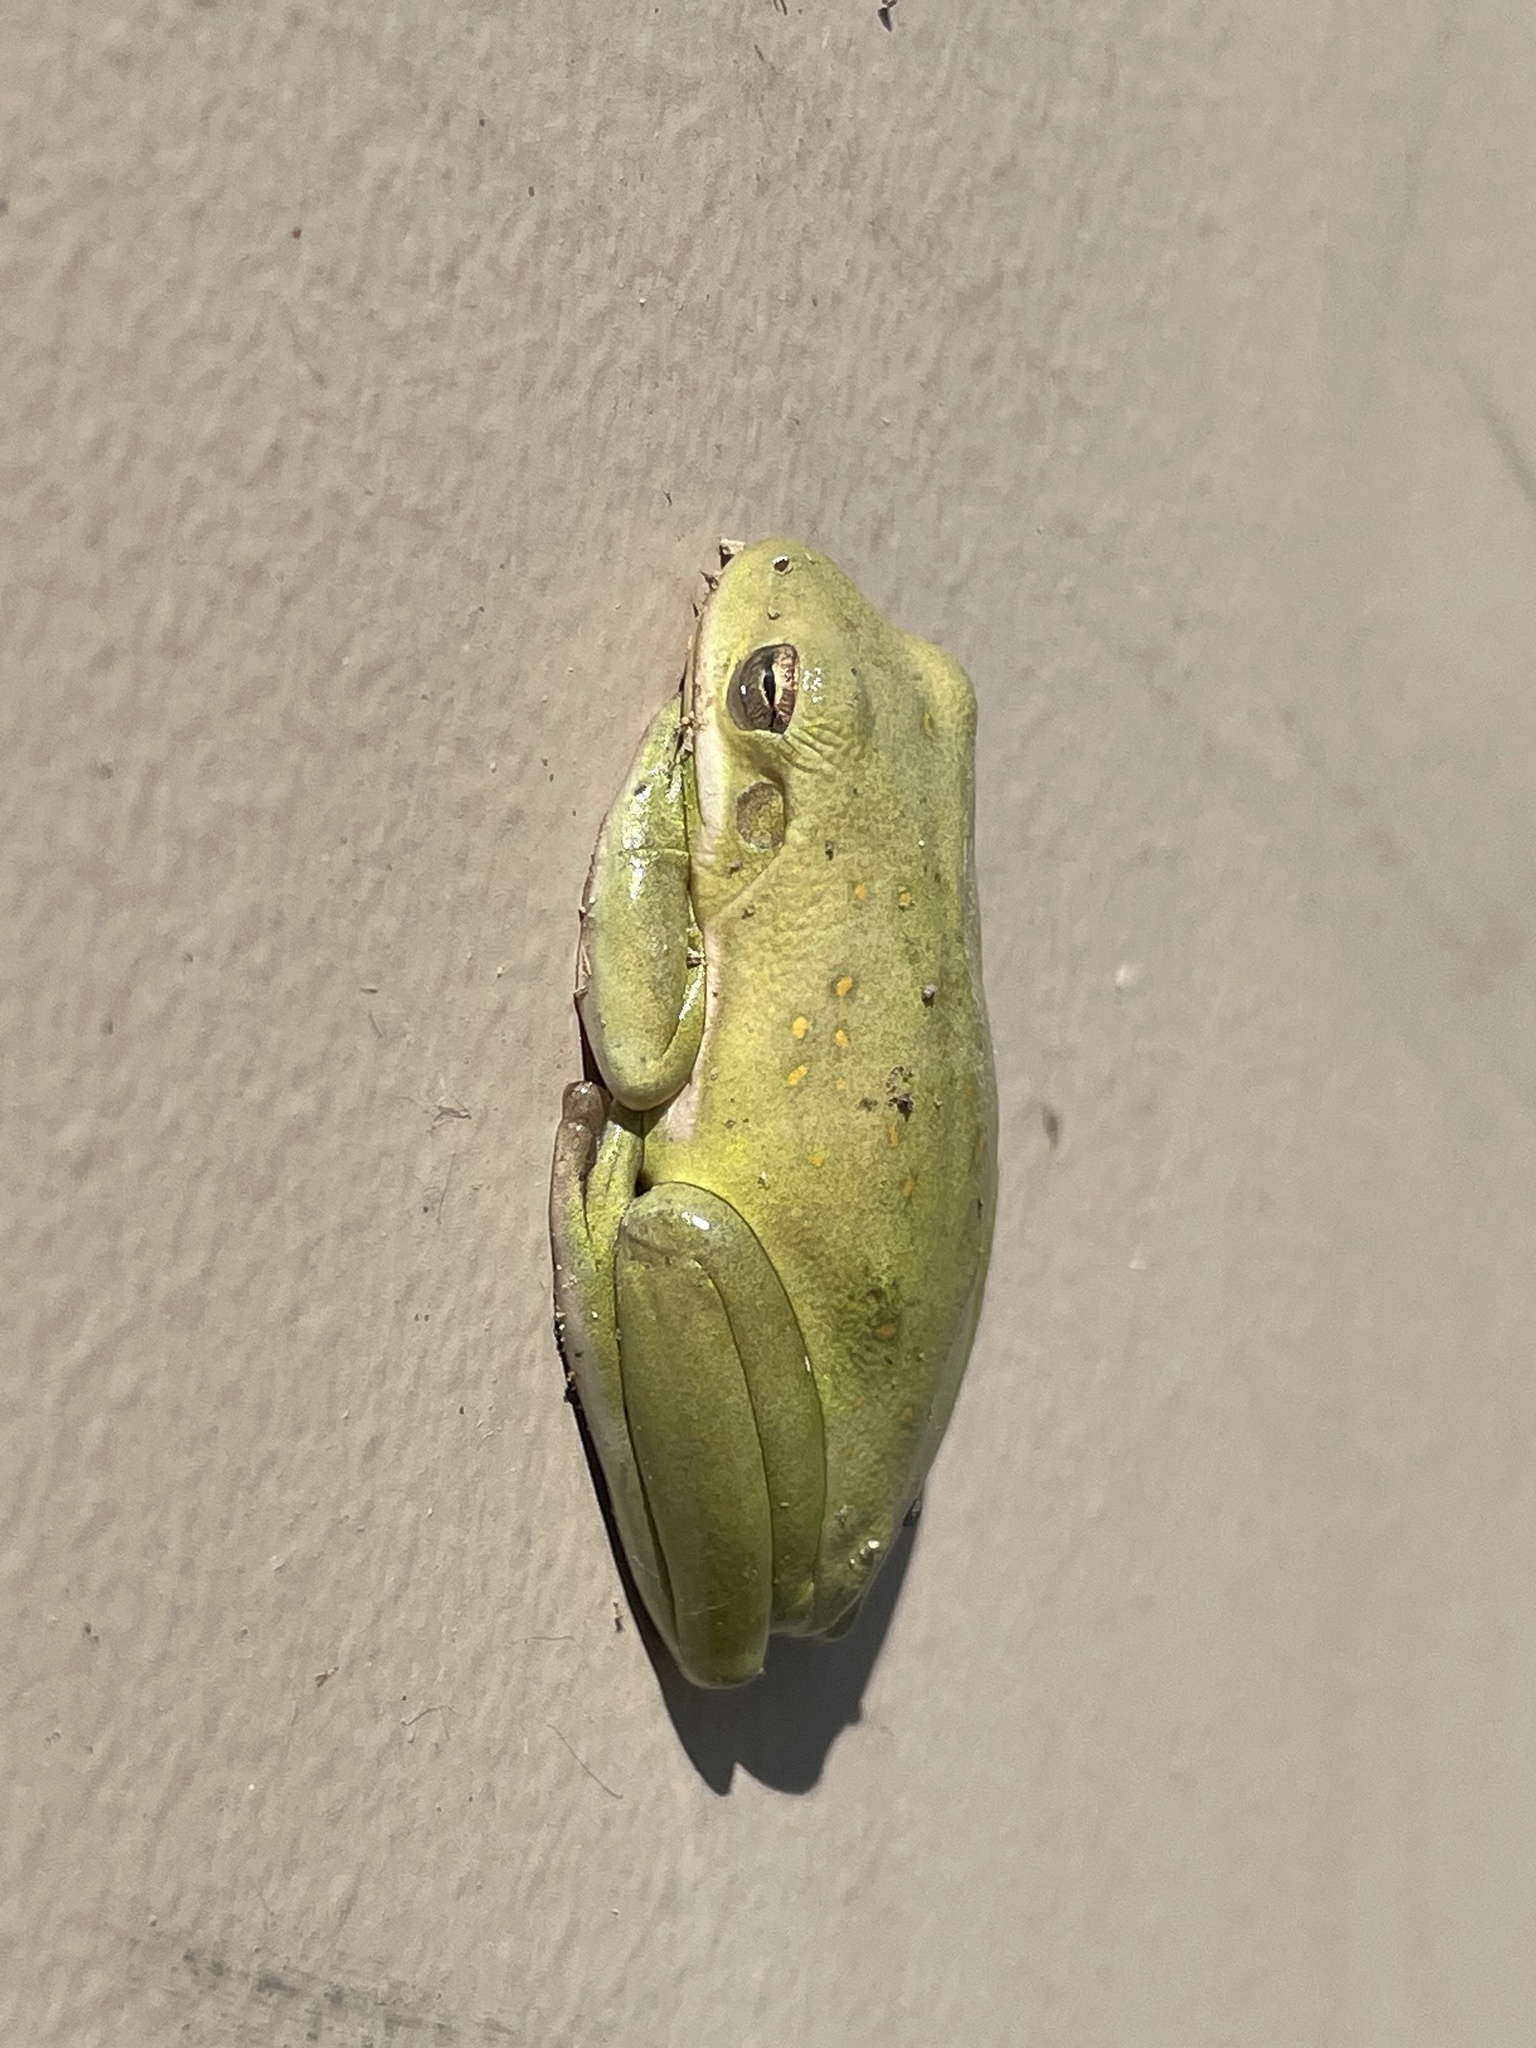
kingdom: Animalia
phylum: Chordata
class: Amphibia
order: Anura
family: Hylidae
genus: Dryophytes
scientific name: Dryophytes cinereus
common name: Green treefrog
